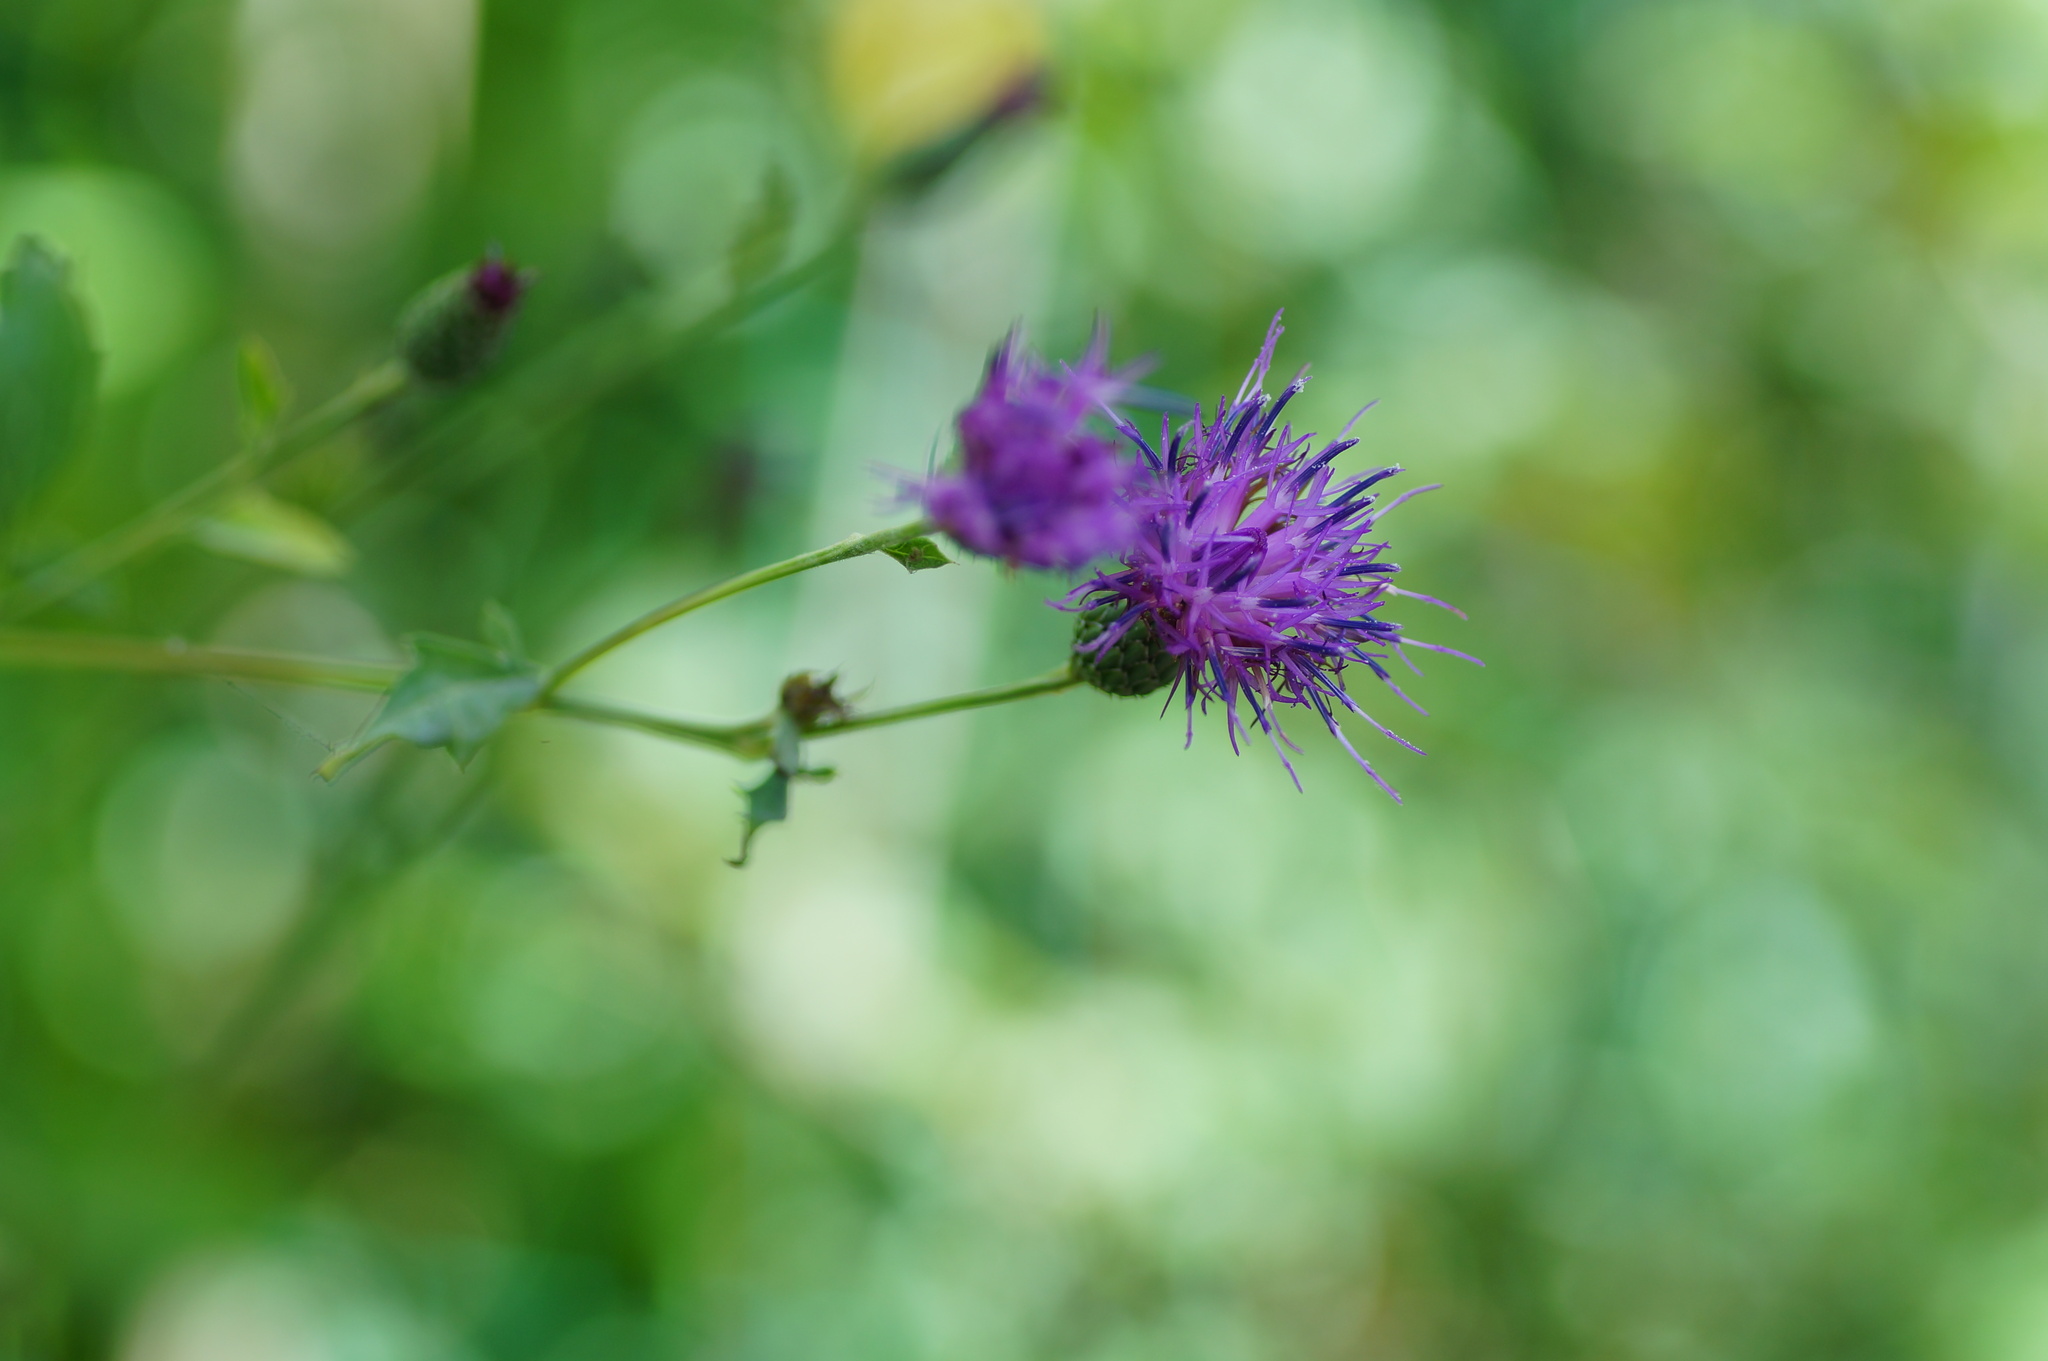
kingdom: Plantae
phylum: Tracheophyta
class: Magnoliopsida
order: Asterales
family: Asteraceae
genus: Klasea
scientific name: Klasea quinquefolia
